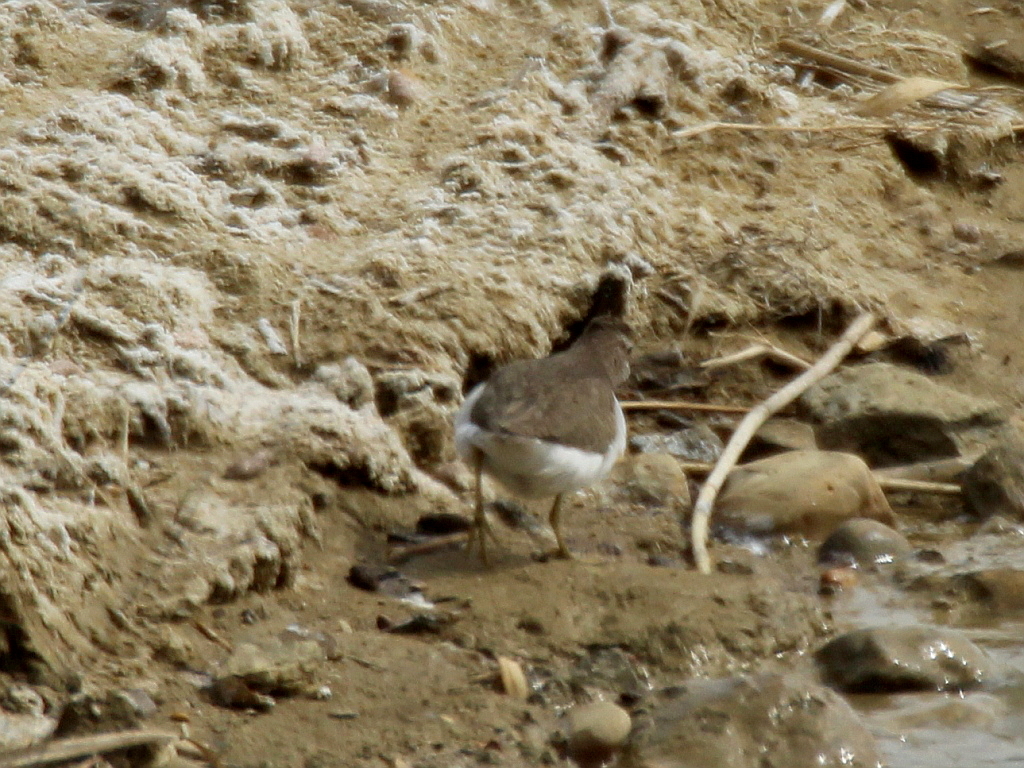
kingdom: Animalia
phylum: Chordata
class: Aves
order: Charadriiformes
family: Scolopacidae
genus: Actitis
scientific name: Actitis hypoleucos
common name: Common sandpiper
